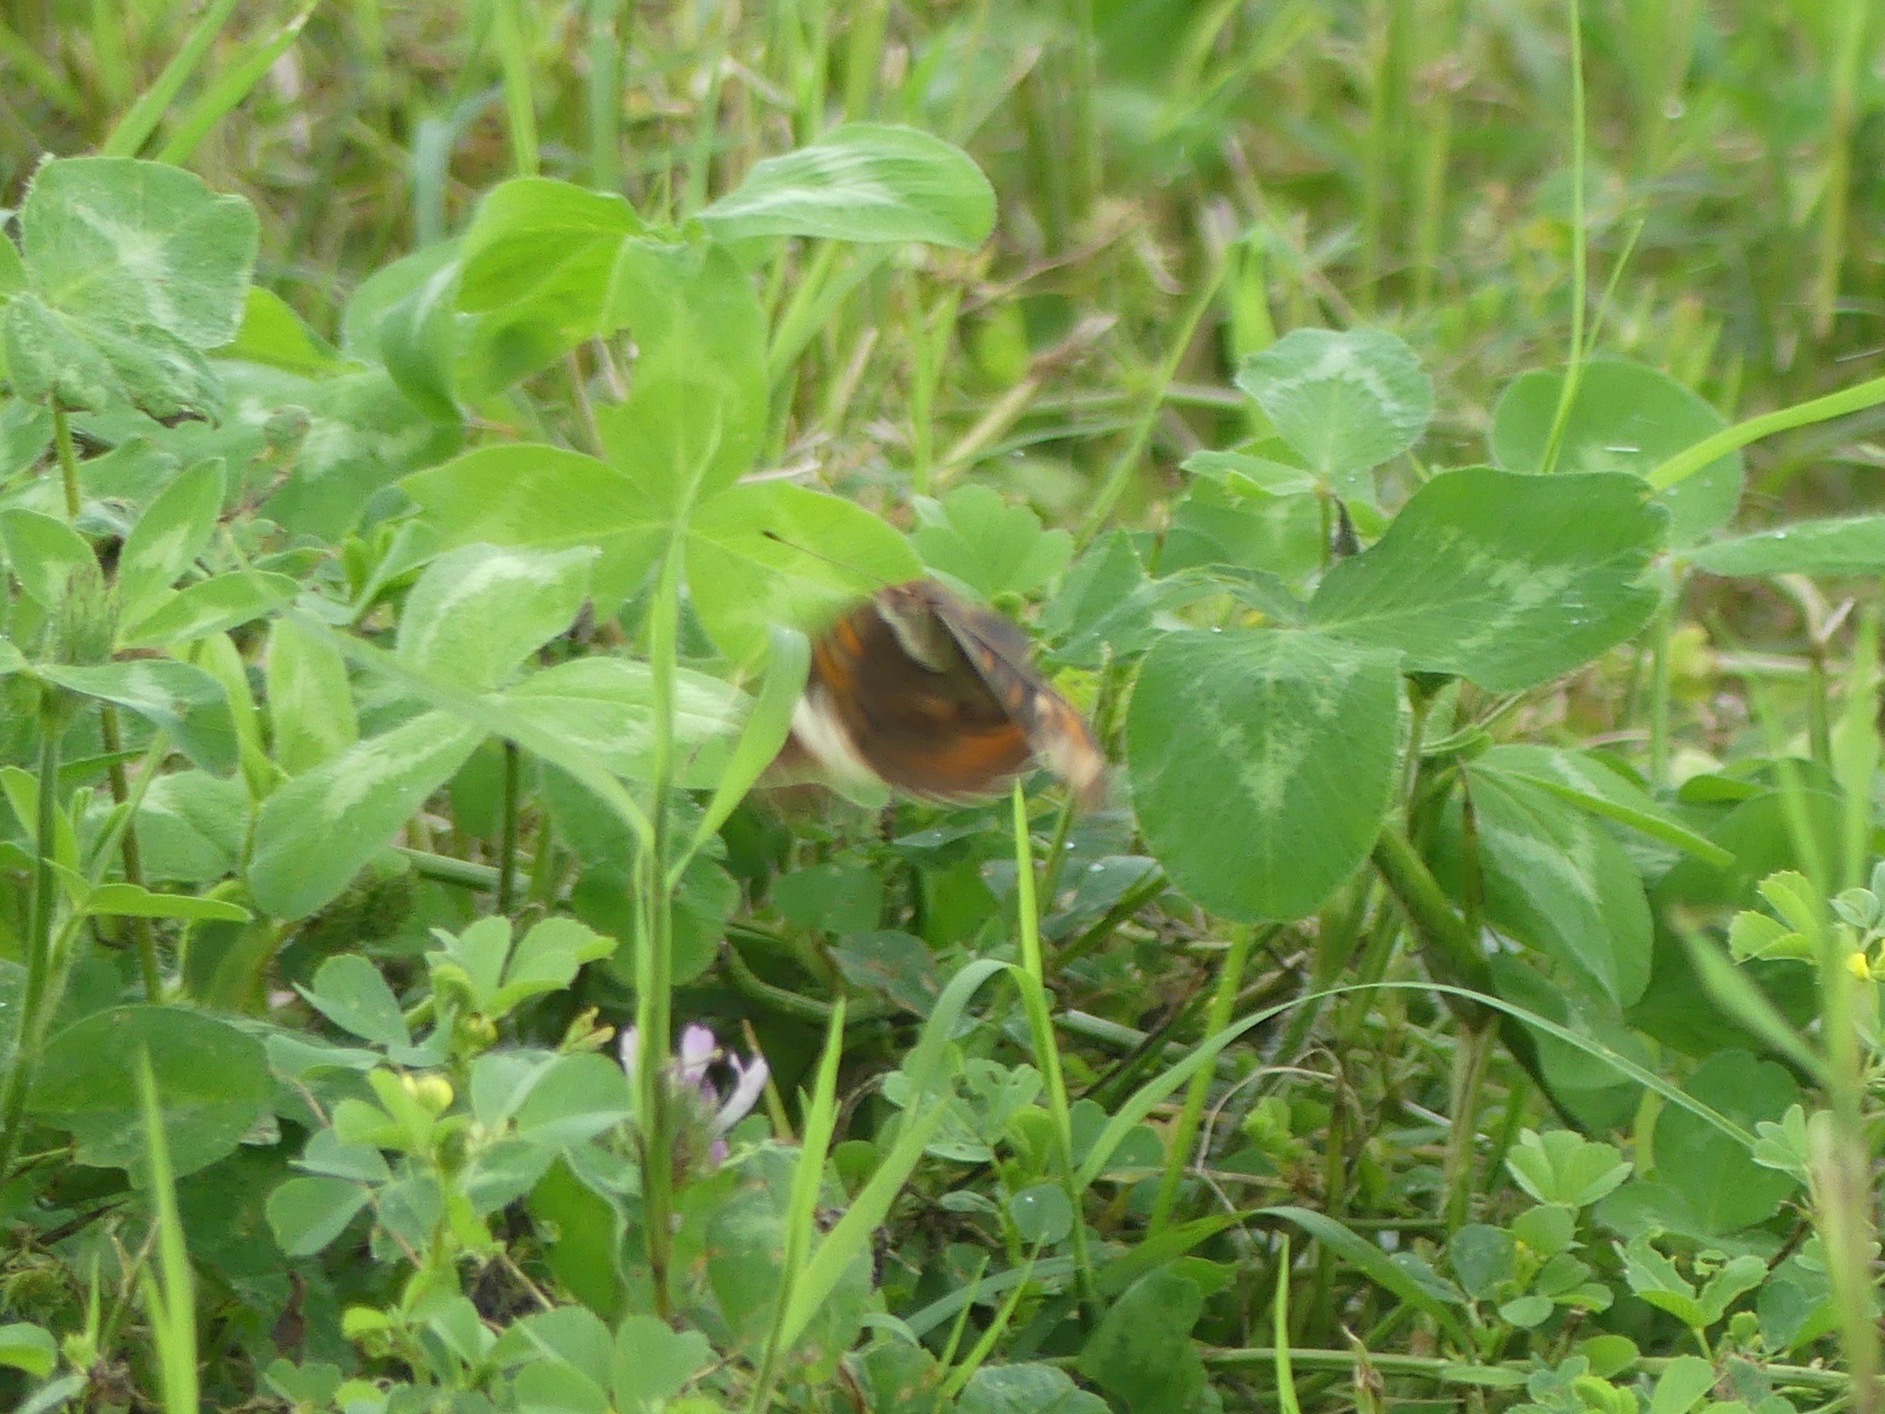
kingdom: Animalia
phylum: Arthropoda
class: Insecta
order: Lepidoptera
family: Nymphalidae
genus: Junonia
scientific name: Junonia coenia
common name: Common buckeye
